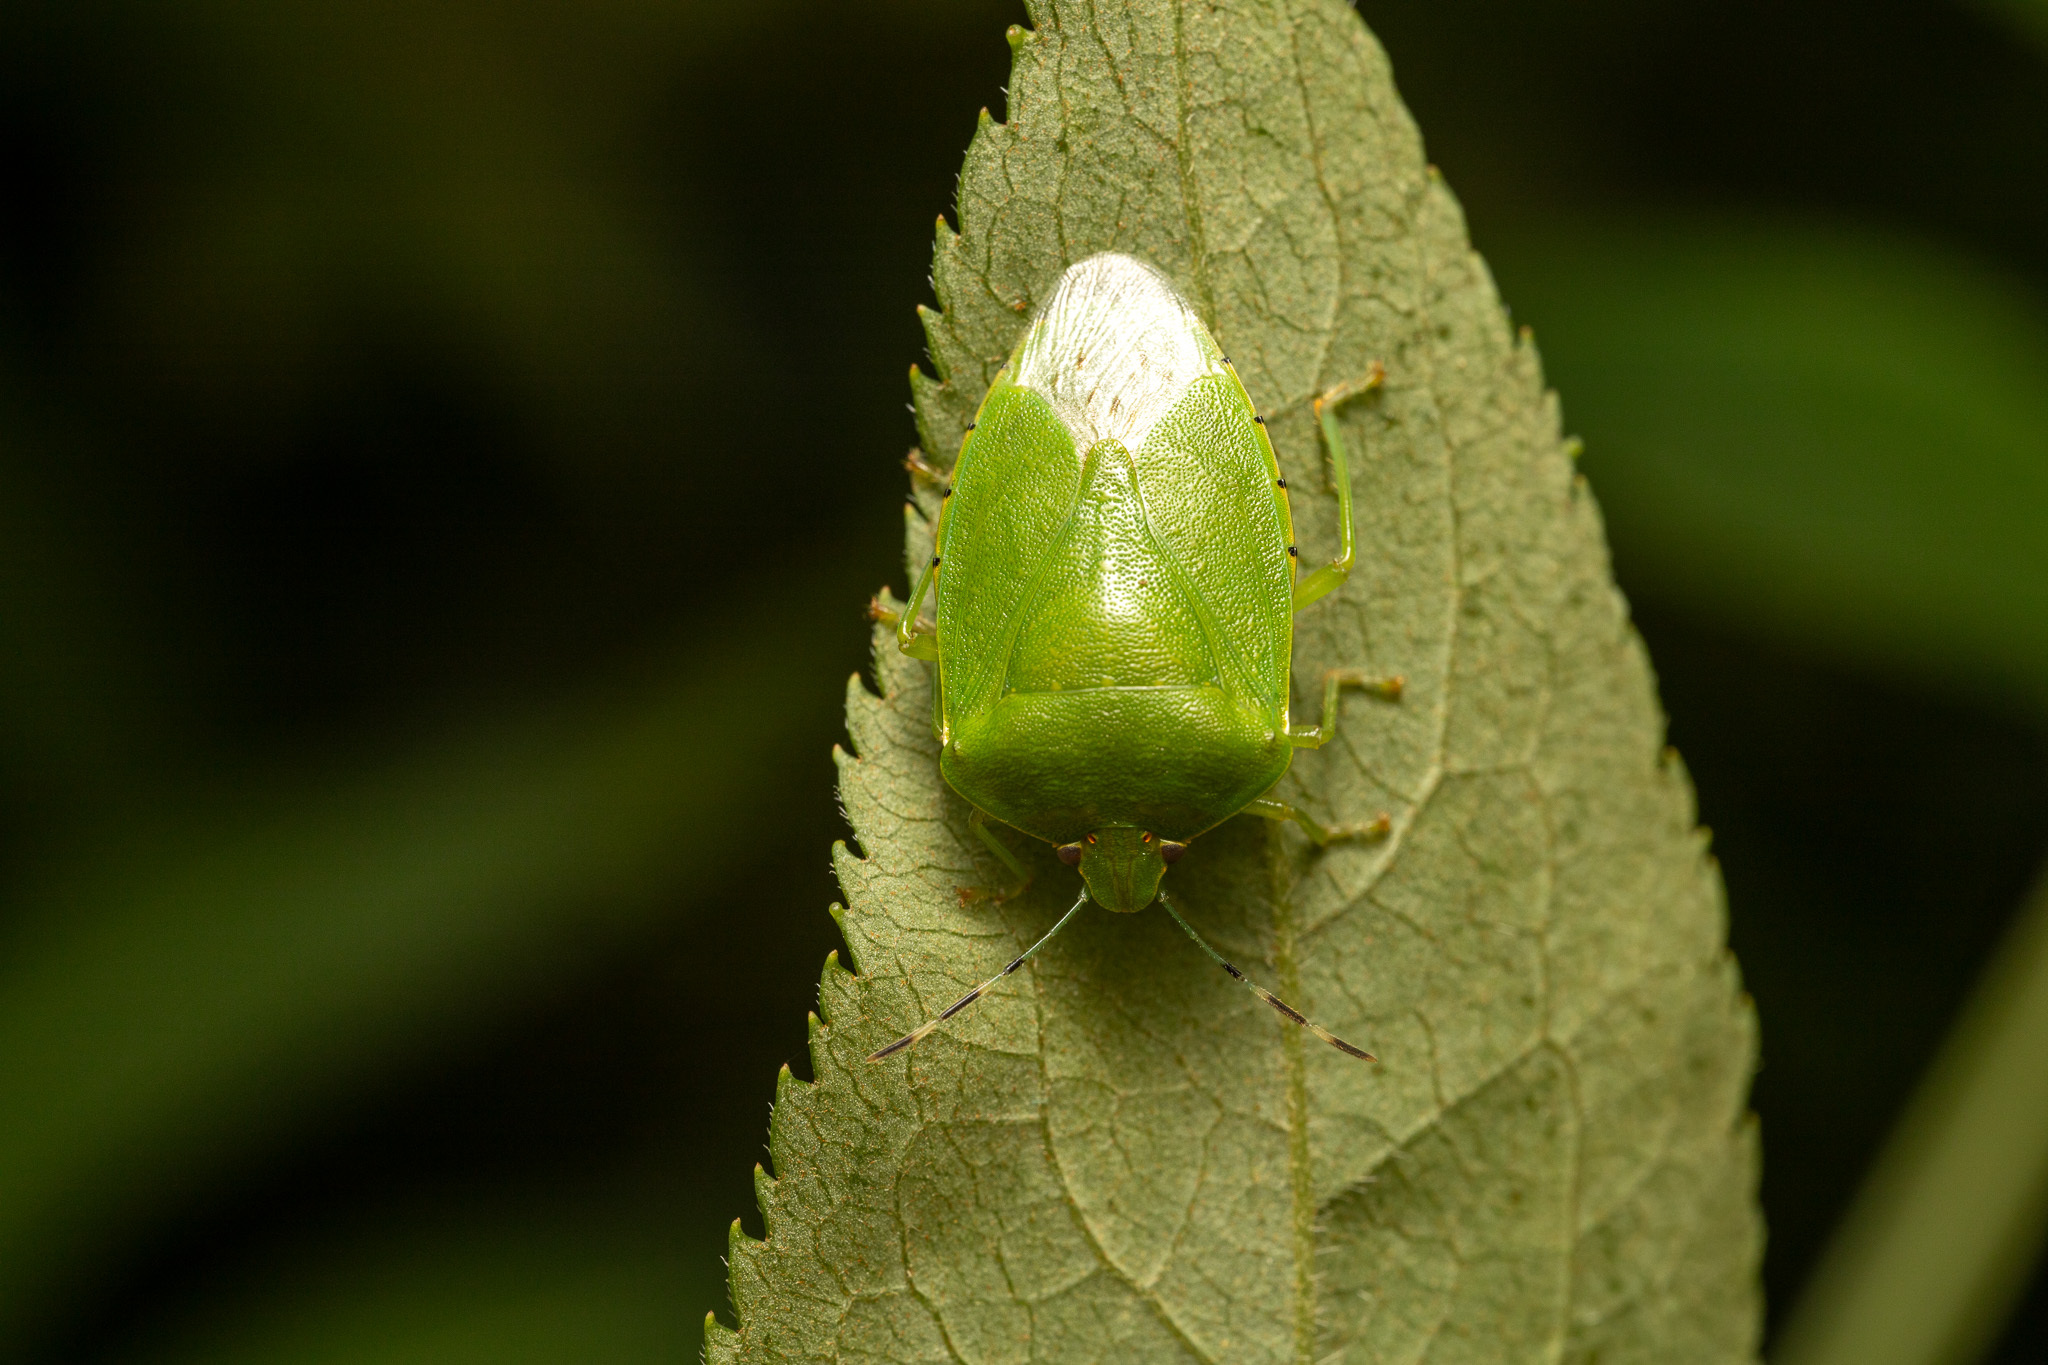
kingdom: Animalia
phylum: Arthropoda
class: Insecta
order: Hemiptera
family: Pentatomidae
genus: Chinavia
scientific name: Chinavia hilaris
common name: Green stink bug
